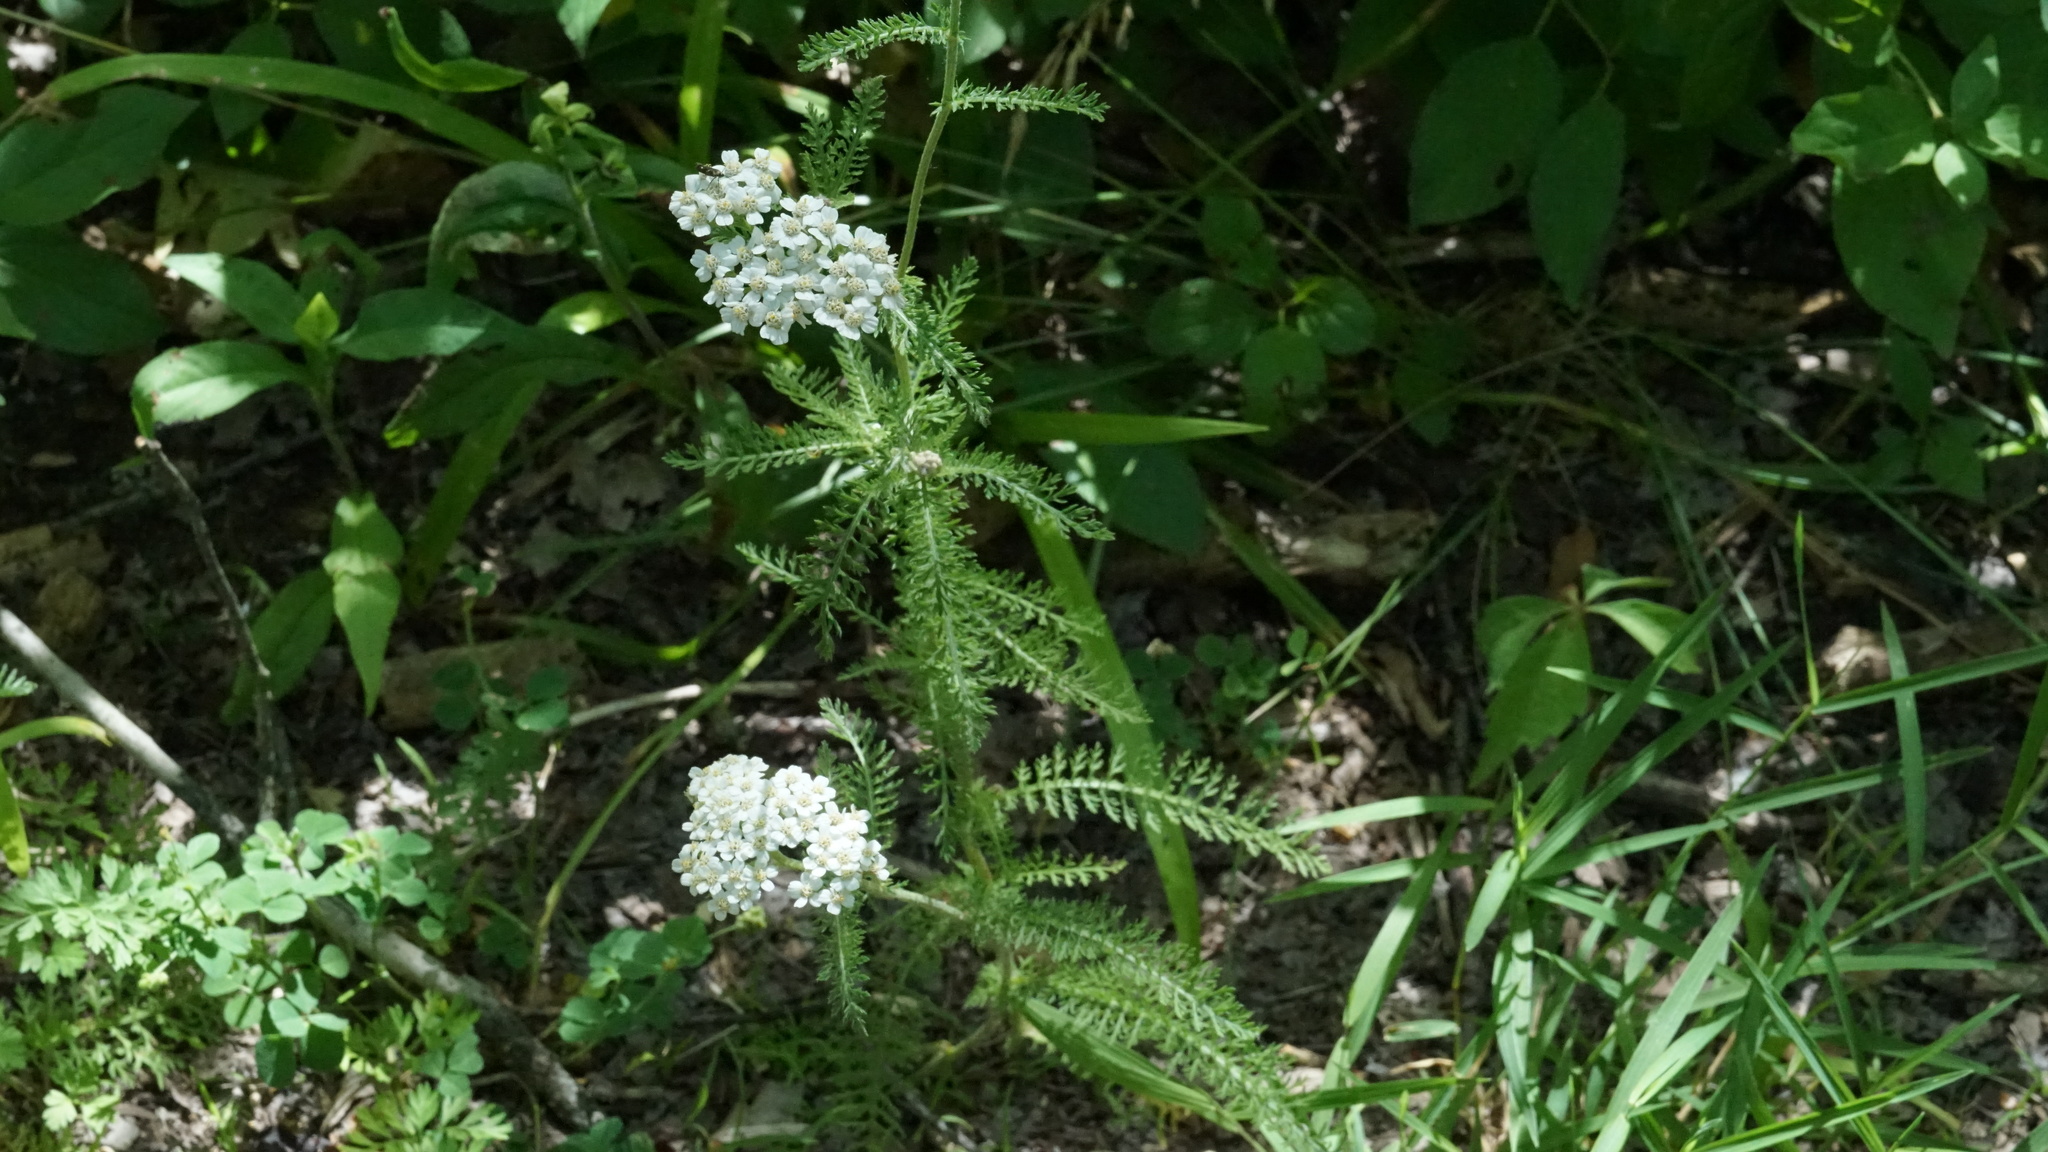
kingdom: Plantae
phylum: Tracheophyta
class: Magnoliopsida
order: Asterales
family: Asteraceae
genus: Achillea
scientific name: Achillea millefolium
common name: Yarrow
